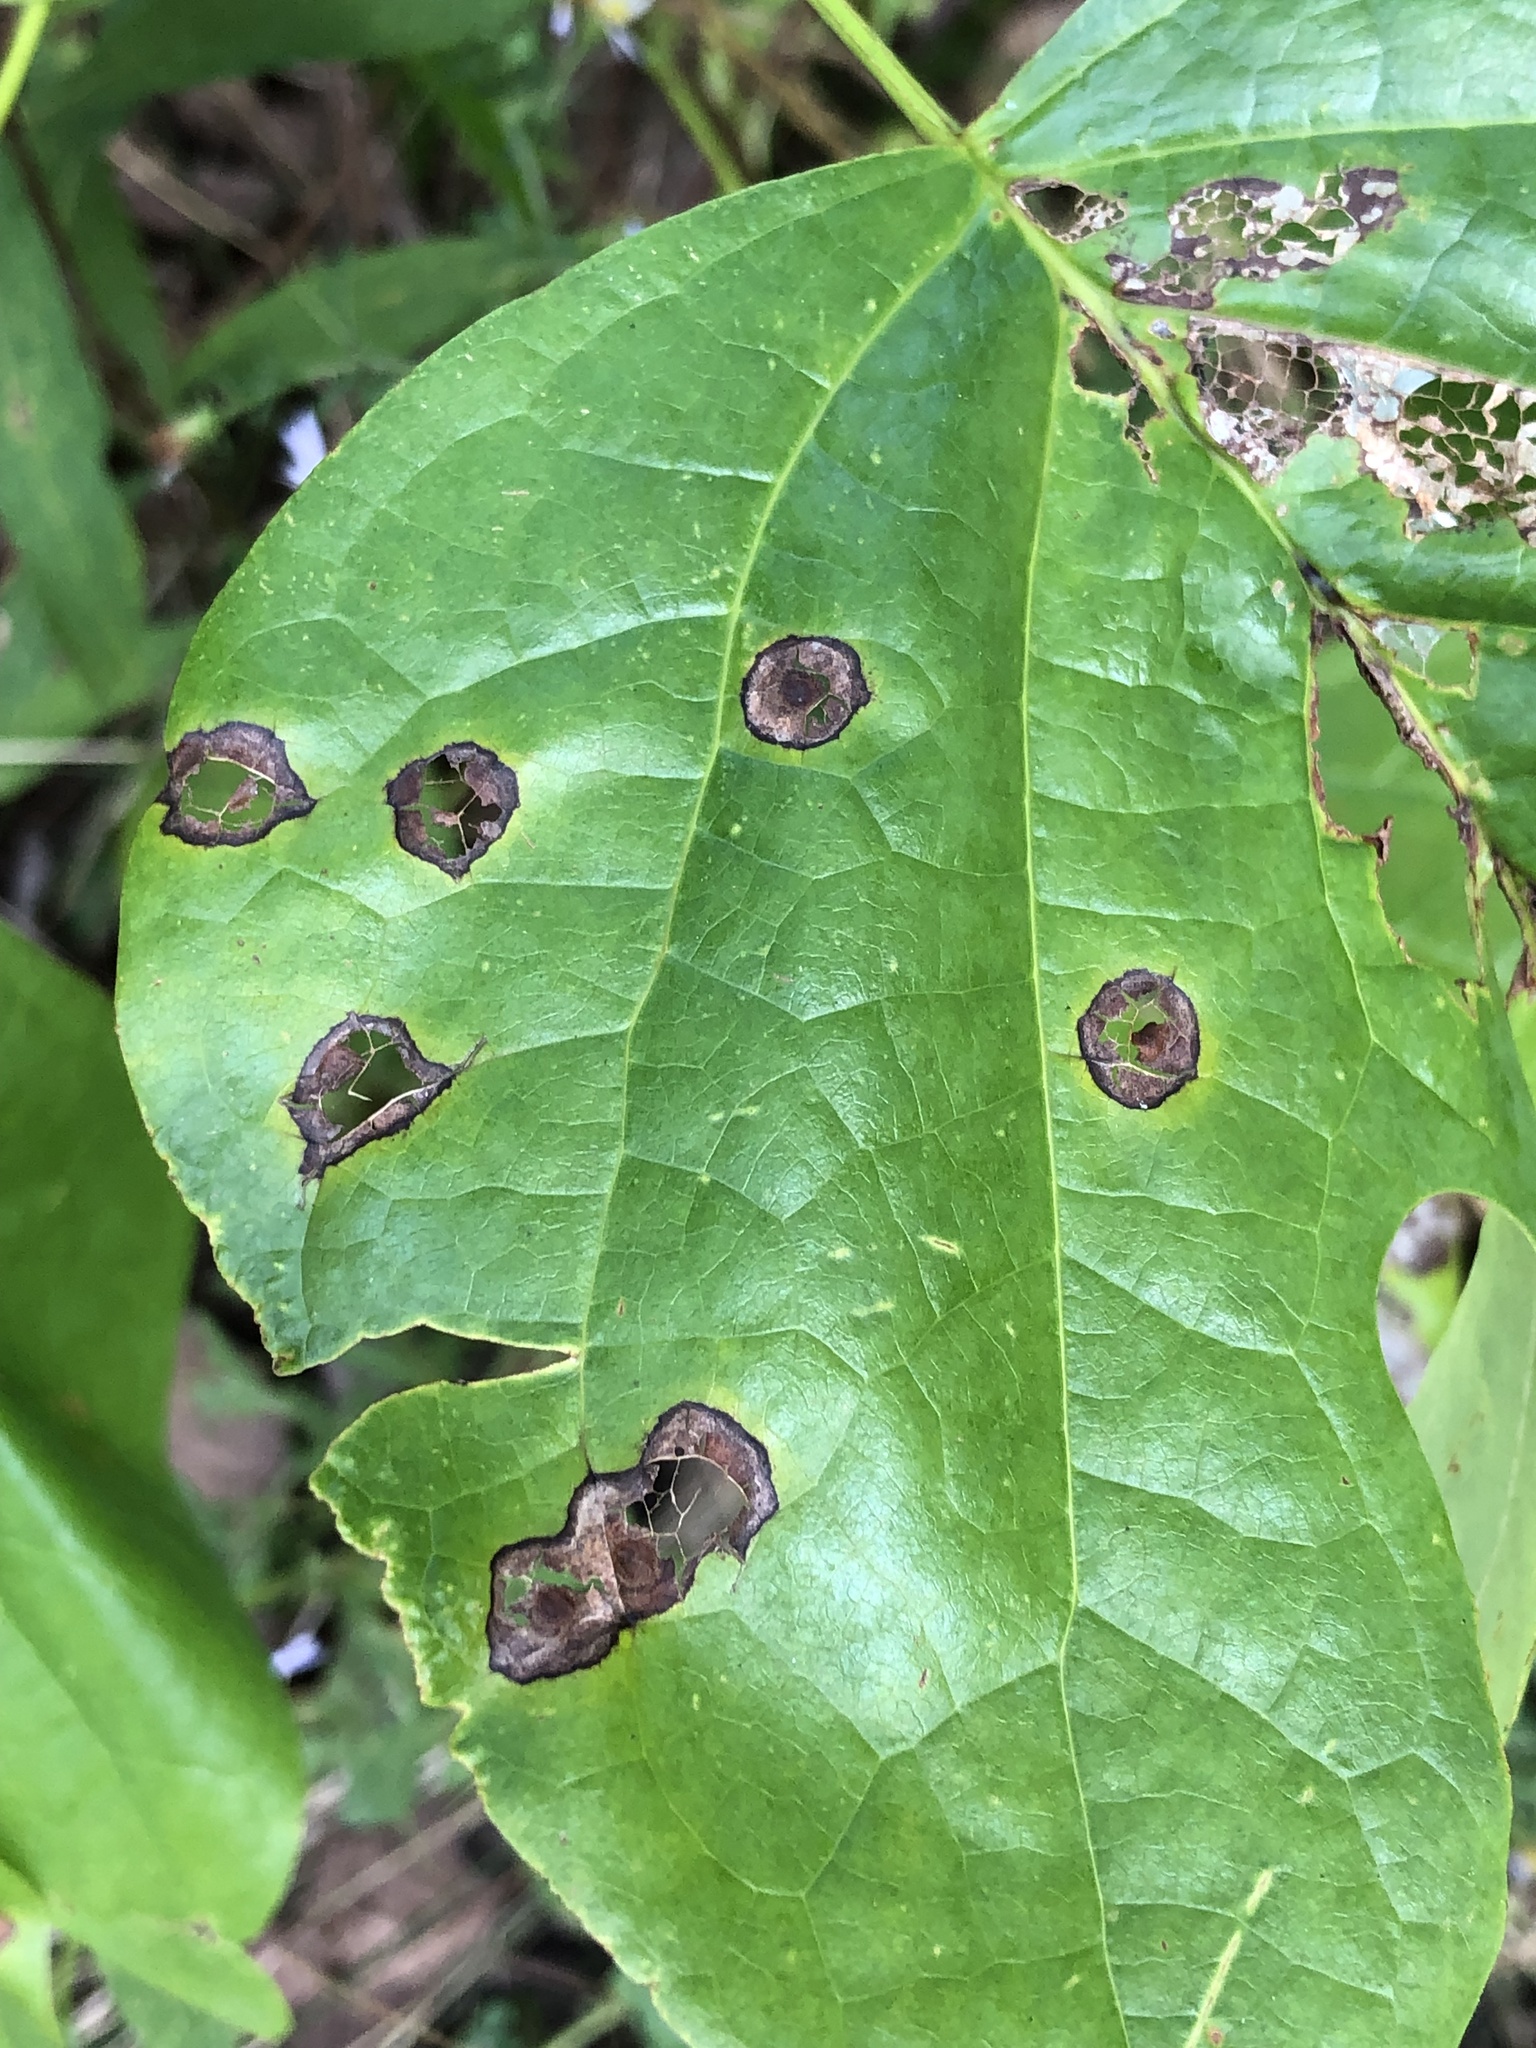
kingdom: Animalia
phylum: Arthropoda
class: Insecta
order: Diptera
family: Cecidomyiidae
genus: Resseliella
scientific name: Resseliella liriodendri
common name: Tulip tree leaf spot gall midge
